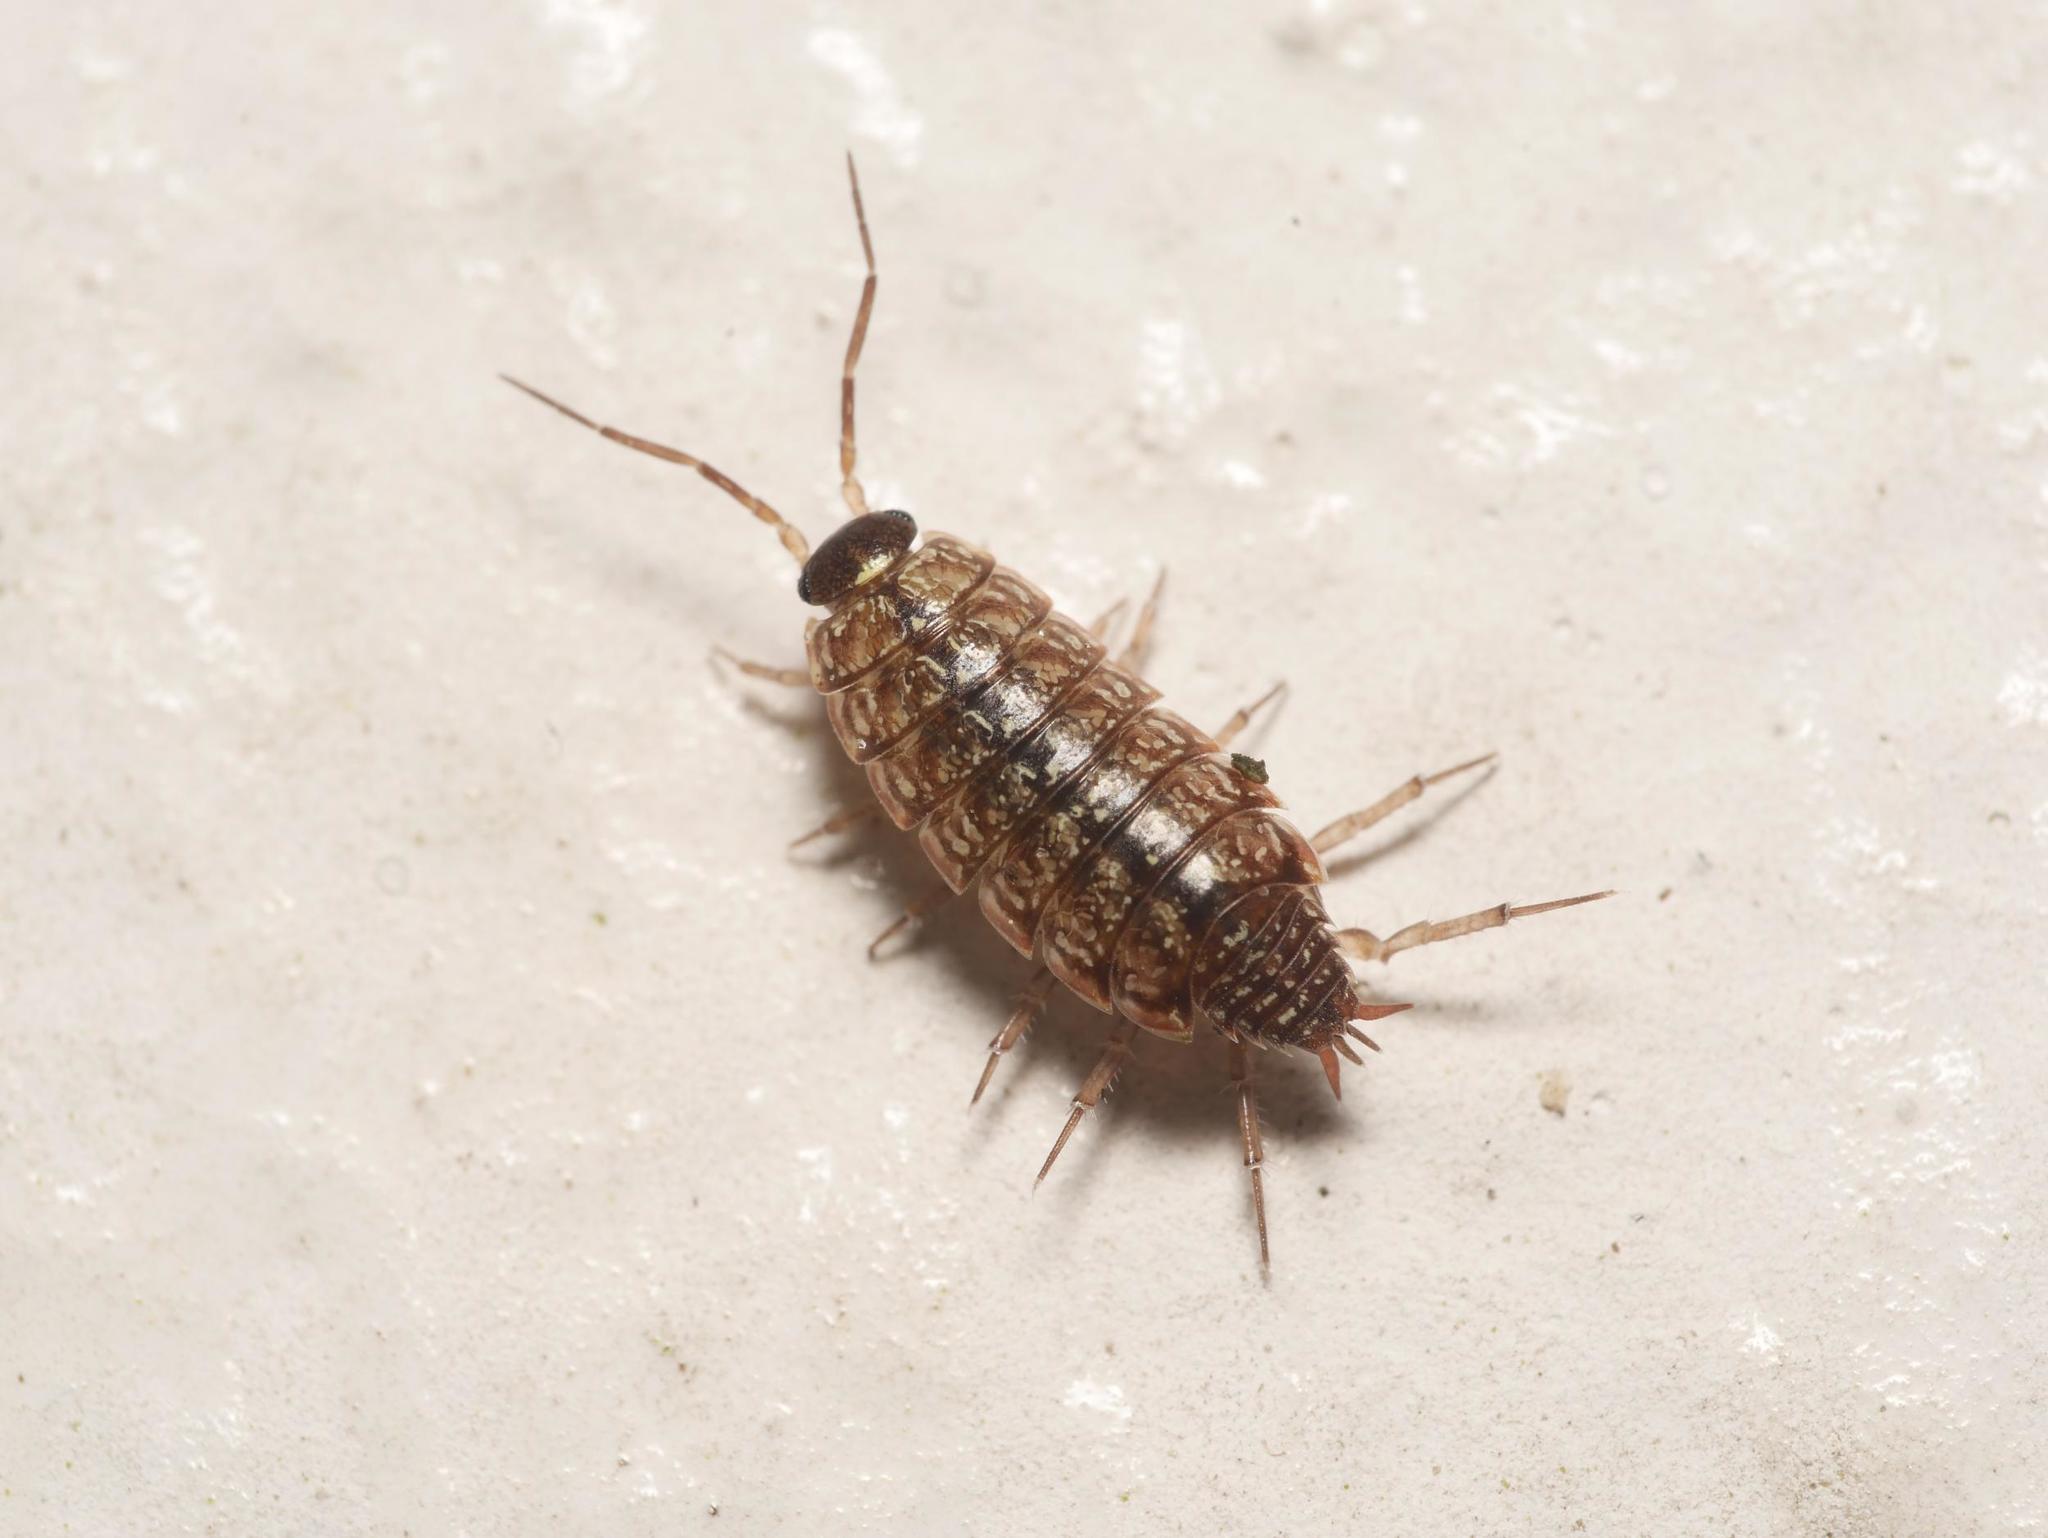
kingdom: Animalia
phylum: Arthropoda
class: Malacostraca
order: Isopoda
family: Philosciidae
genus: Philoscia
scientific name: Philoscia muscorum
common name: Common striped woodlouse
